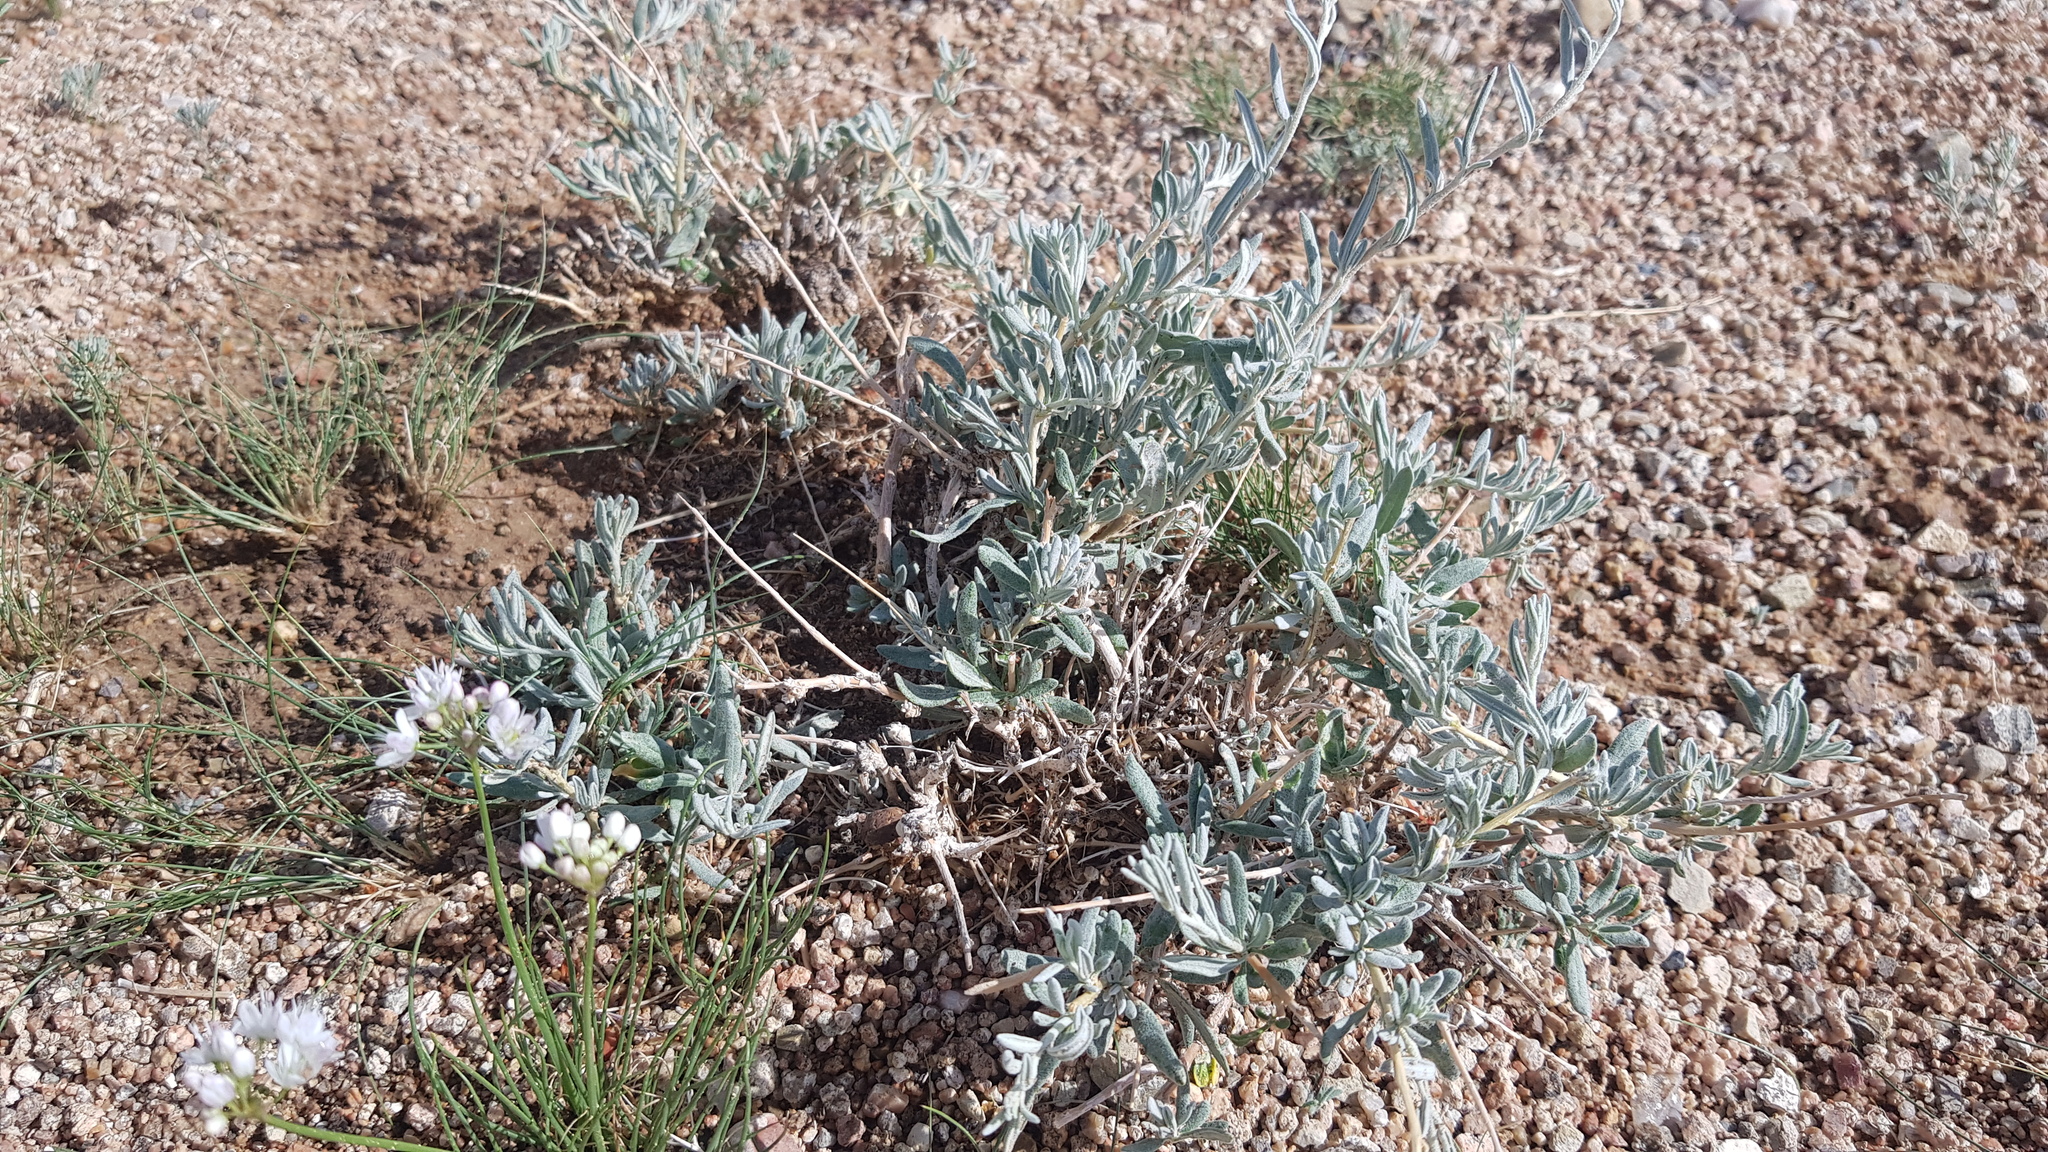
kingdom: Plantae
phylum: Tracheophyta
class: Magnoliopsida
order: Caryophyllales
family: Amaranthaceae
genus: Krascheninnikovia
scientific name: Krascheninnikovia ceratoides
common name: Pamirian winterfat
